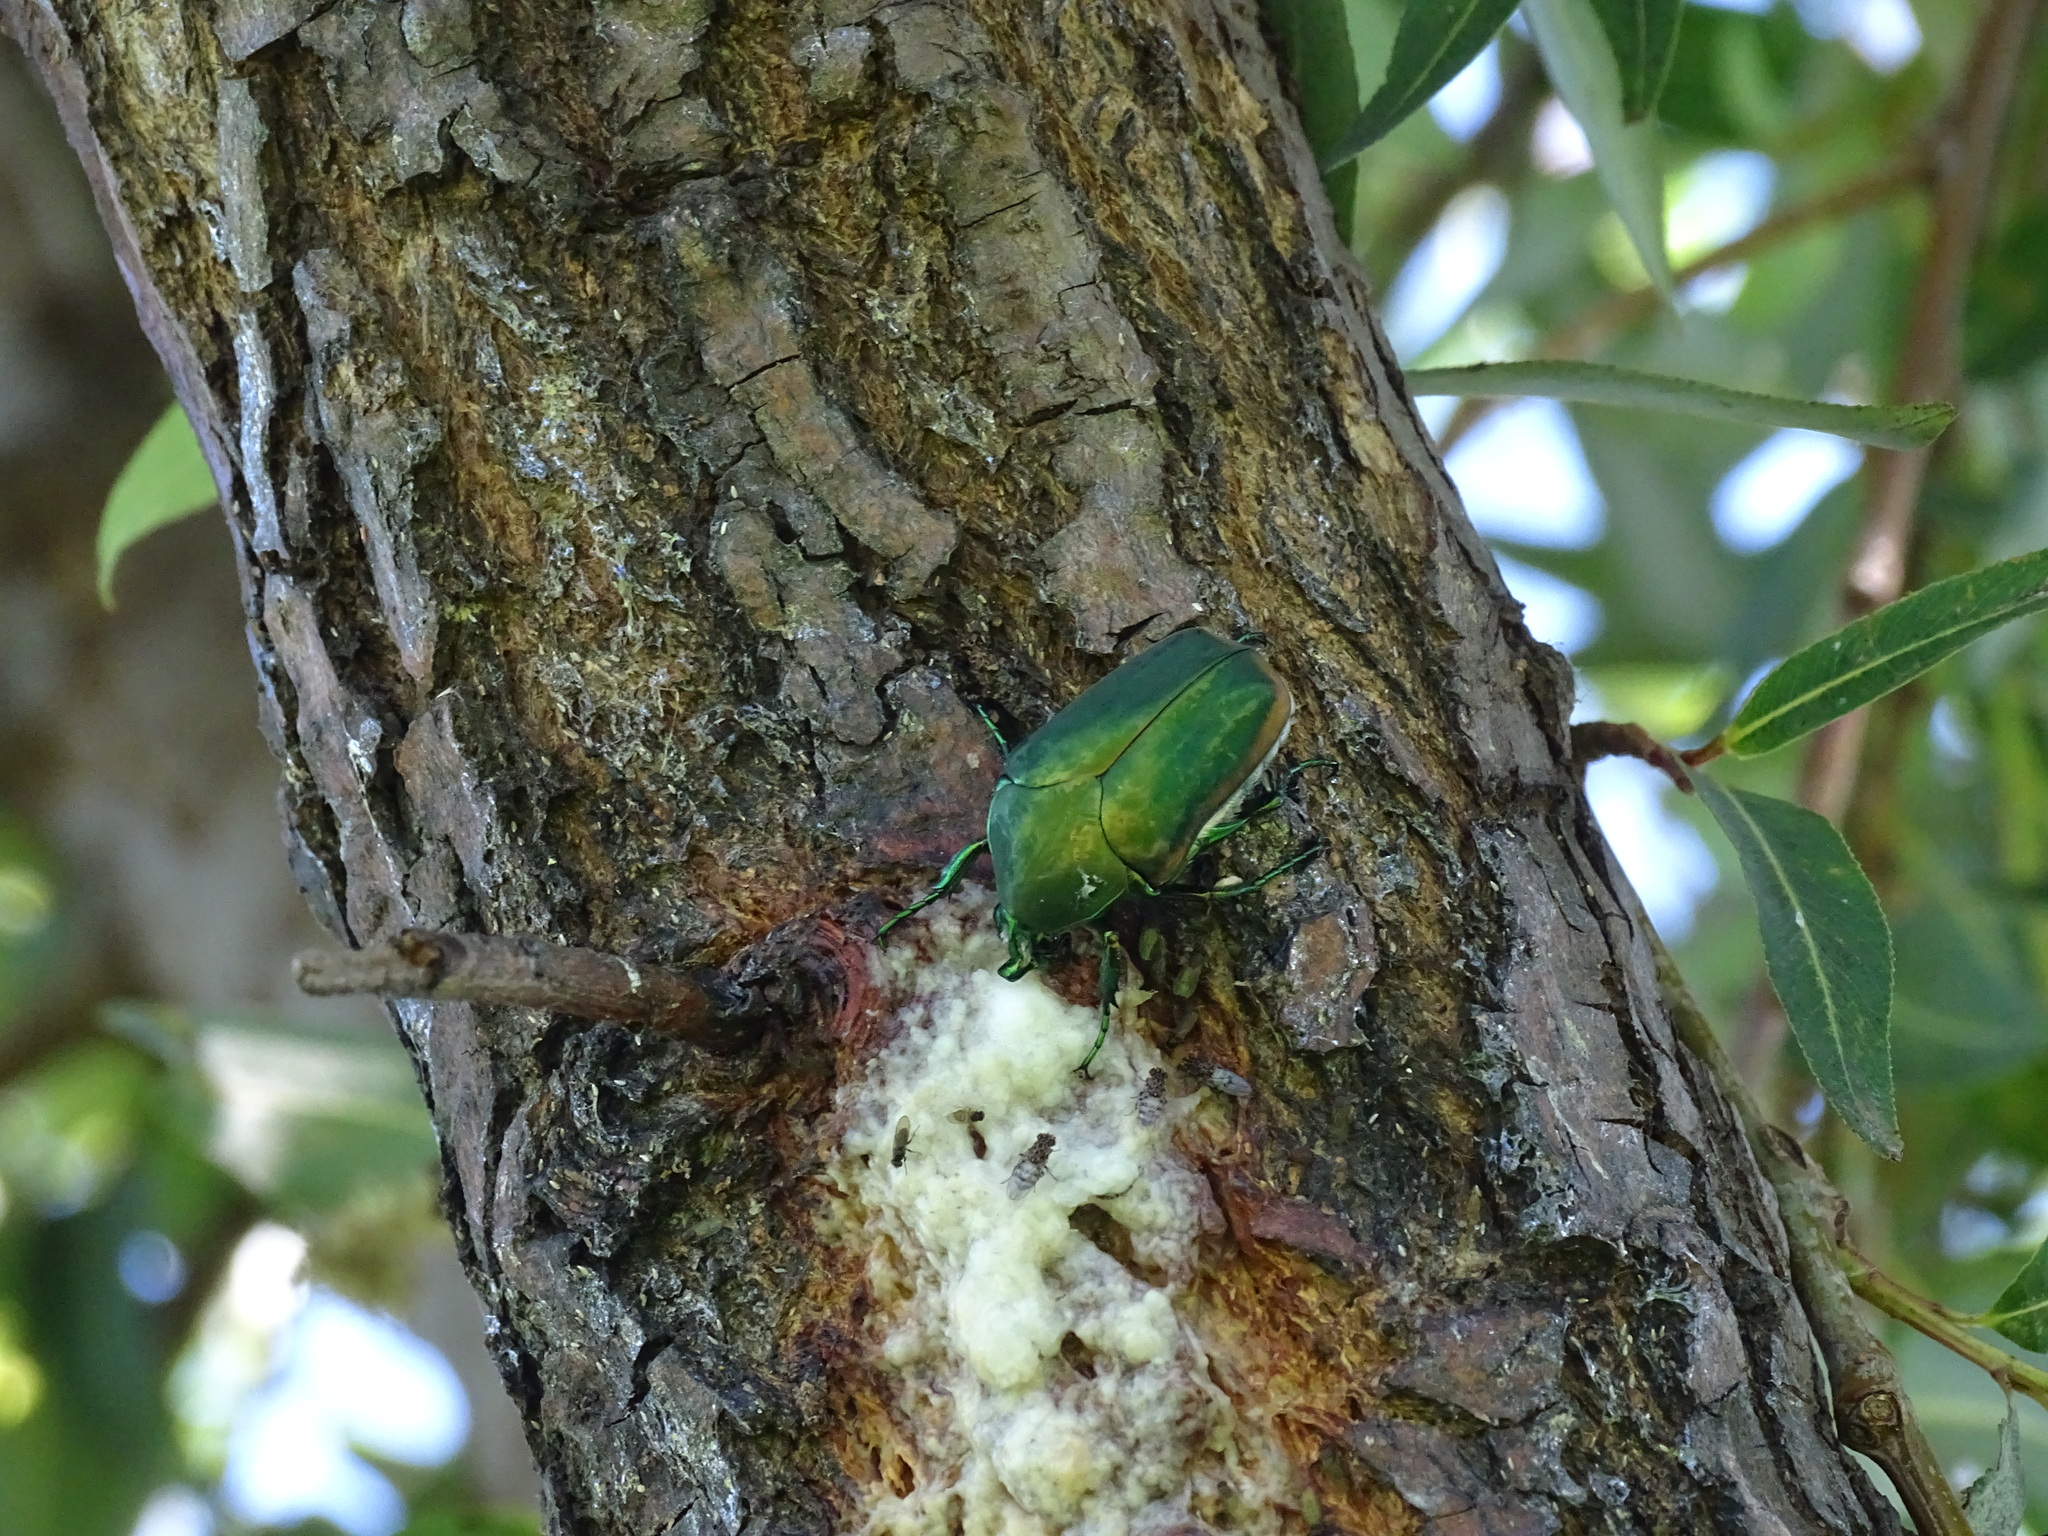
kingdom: Animalia
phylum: Arthropoda
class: Insecta
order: Coleoptera
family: Scarabaeidae
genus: Cotinis
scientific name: Cotinis mutabilis
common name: Figeater beetle
